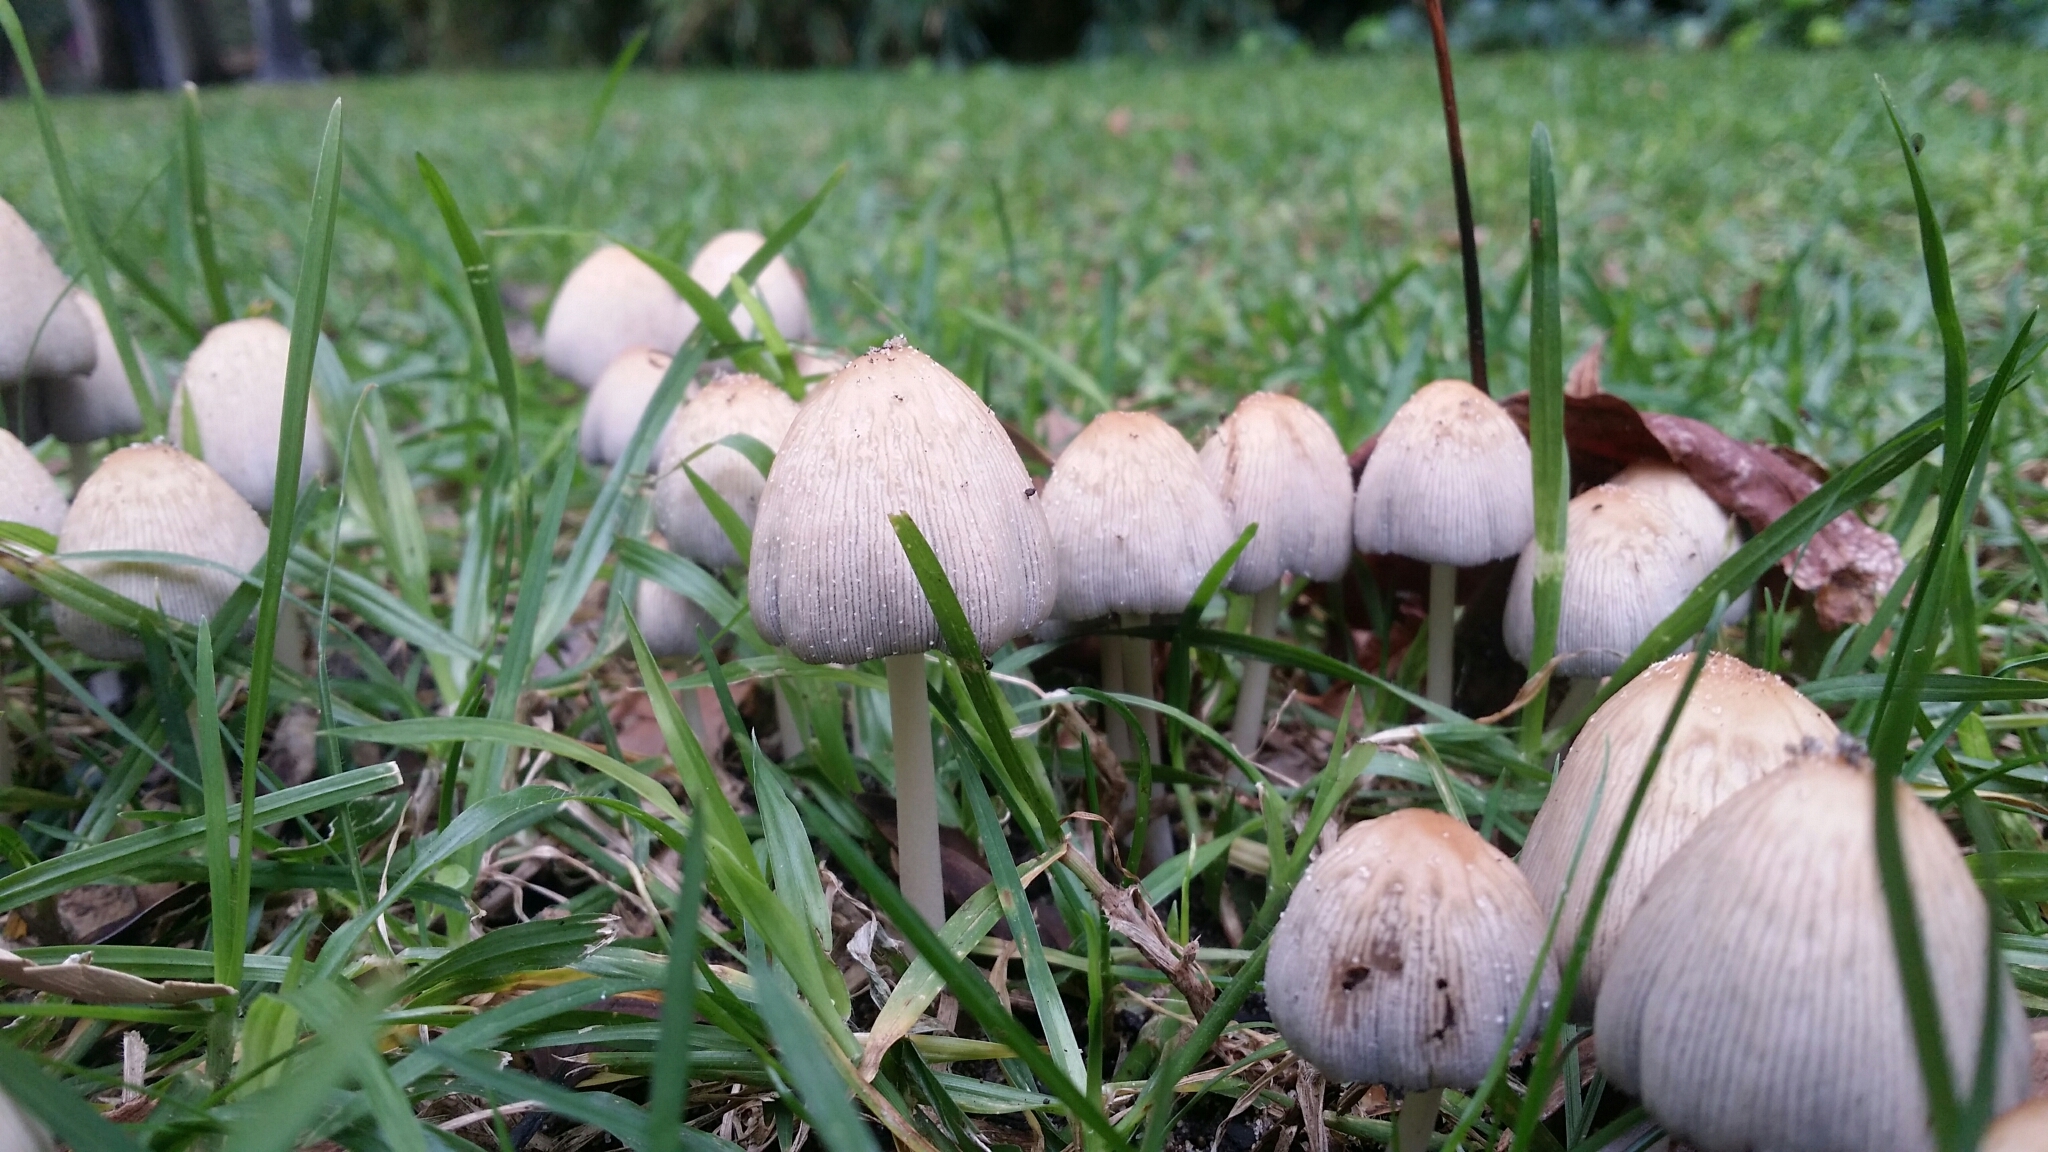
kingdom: Fungi
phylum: Basidiomycota
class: Agaricomycetes
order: Agaricales
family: Psathyrellaceae
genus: Tulosesus
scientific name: Tulosesus impatiens
